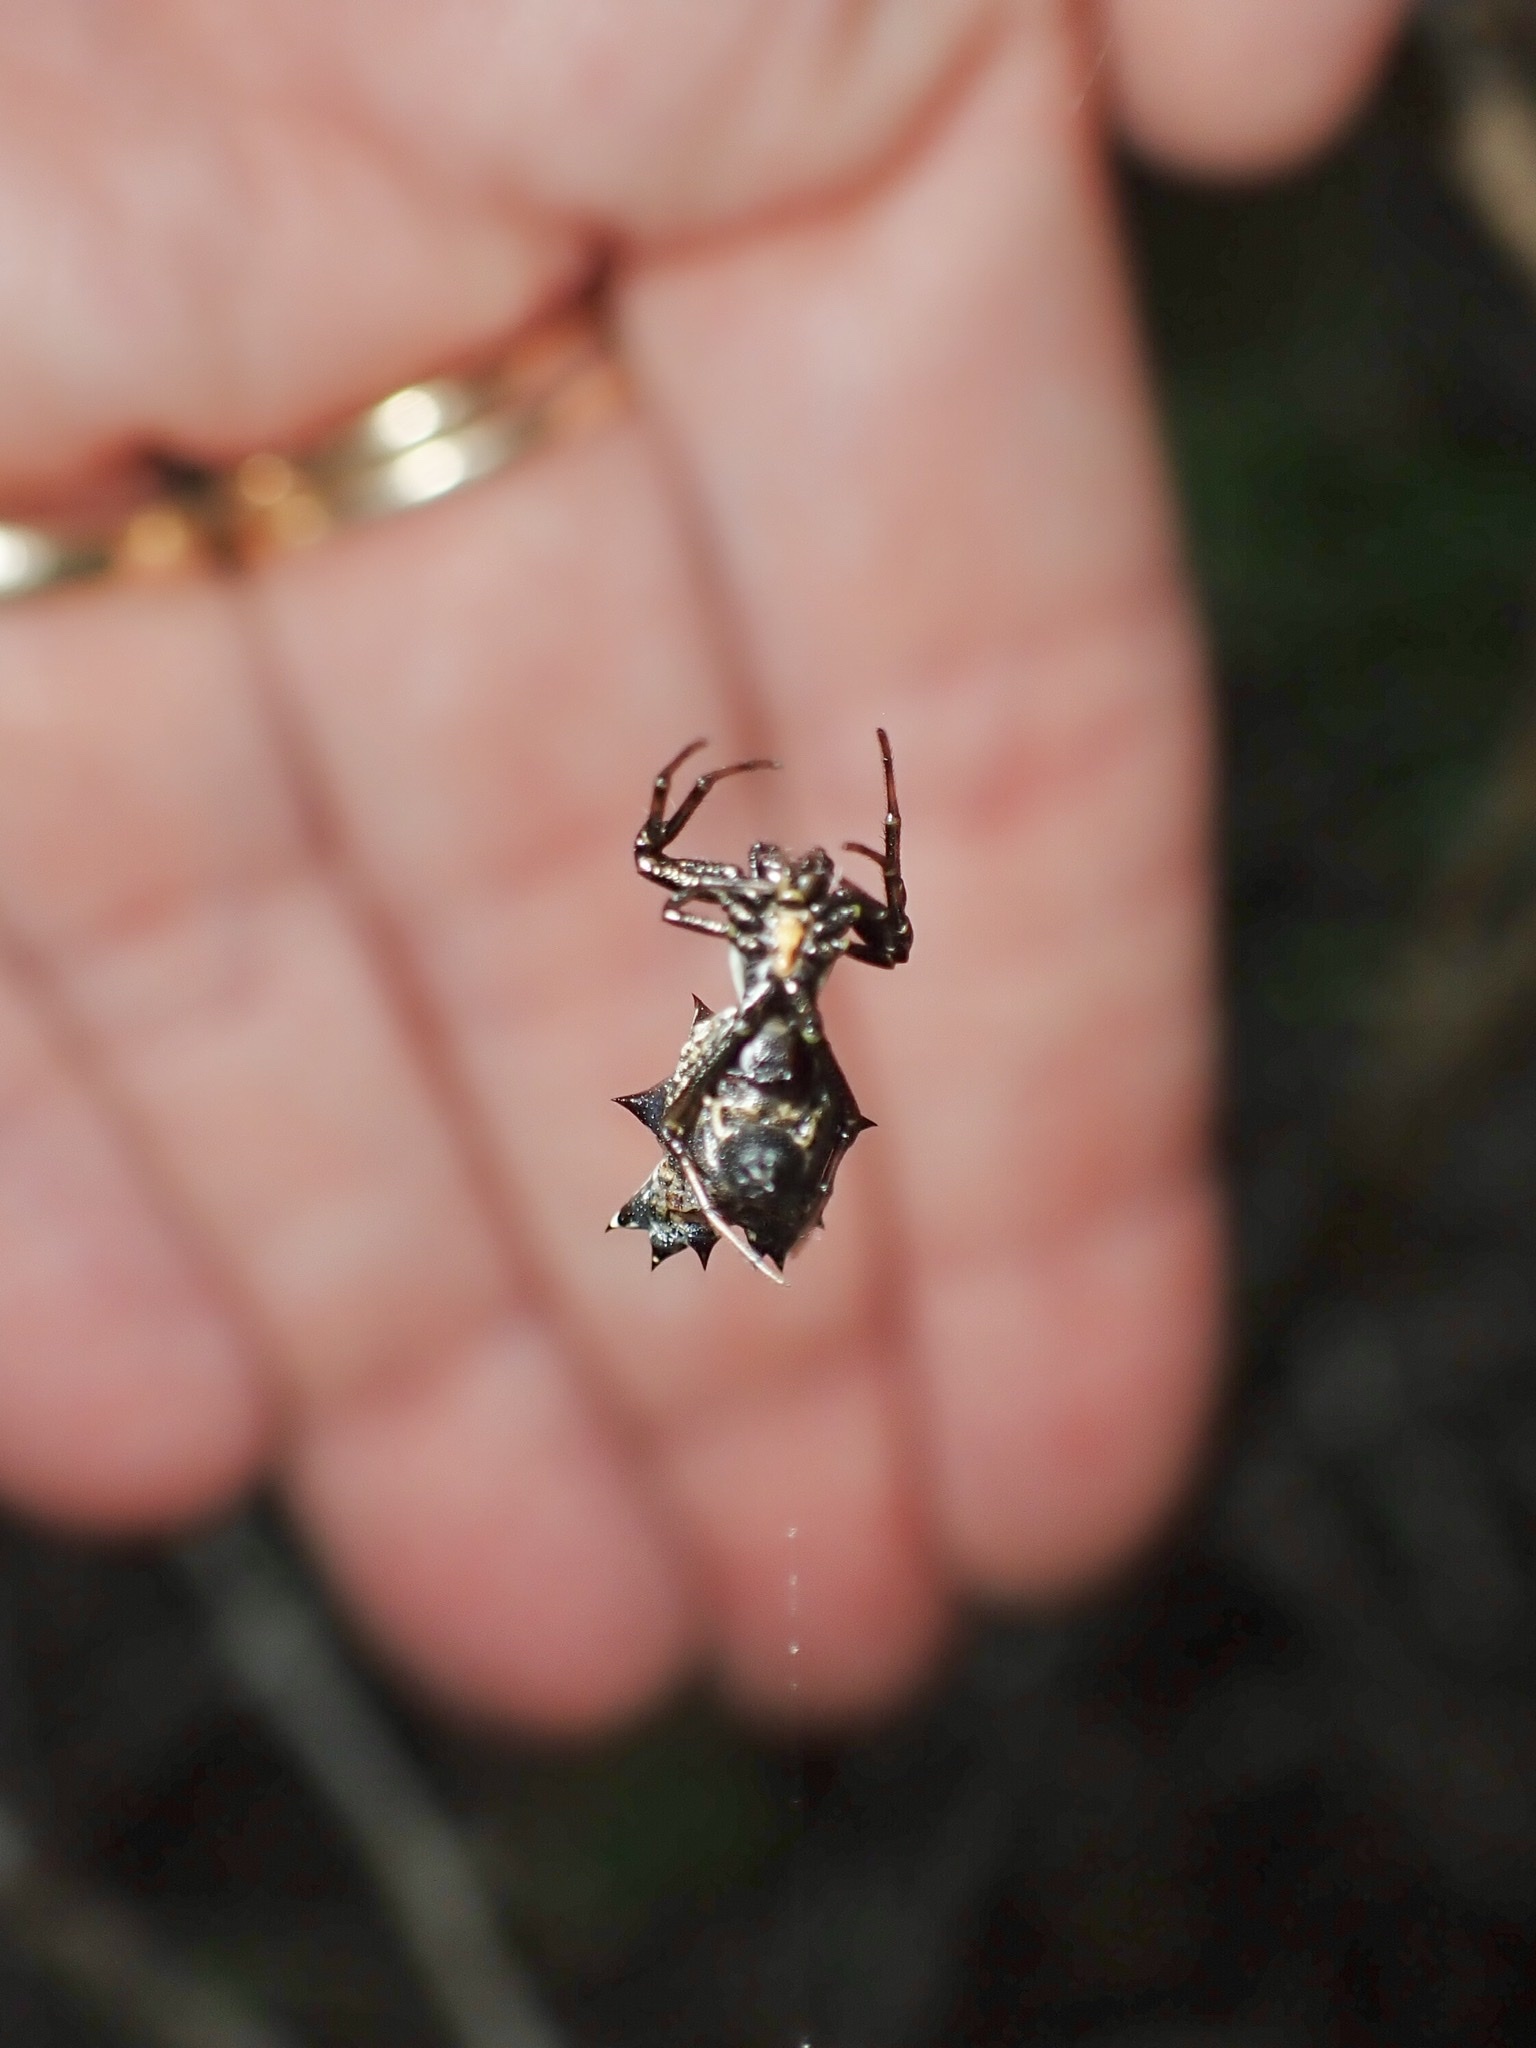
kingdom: Animalia
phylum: Arthropoda
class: Arachnida
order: Araneae
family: Araneidae
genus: Micrathena
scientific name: Micrathena gracilis
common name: Orb weavers
